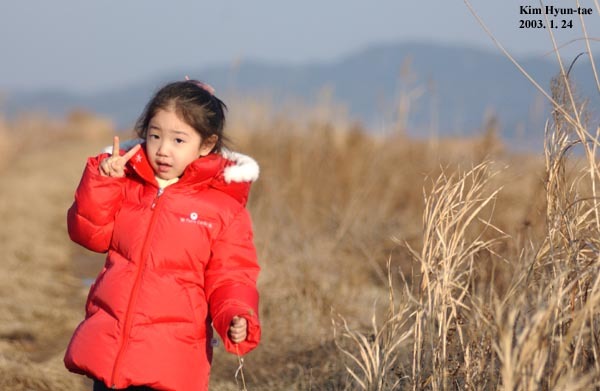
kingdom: Animalia
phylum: Chordata
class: Aves
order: Anseriformes
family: Anatidae
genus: Sibirionetta
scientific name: Sibirionetta formosa
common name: Baikal teal
